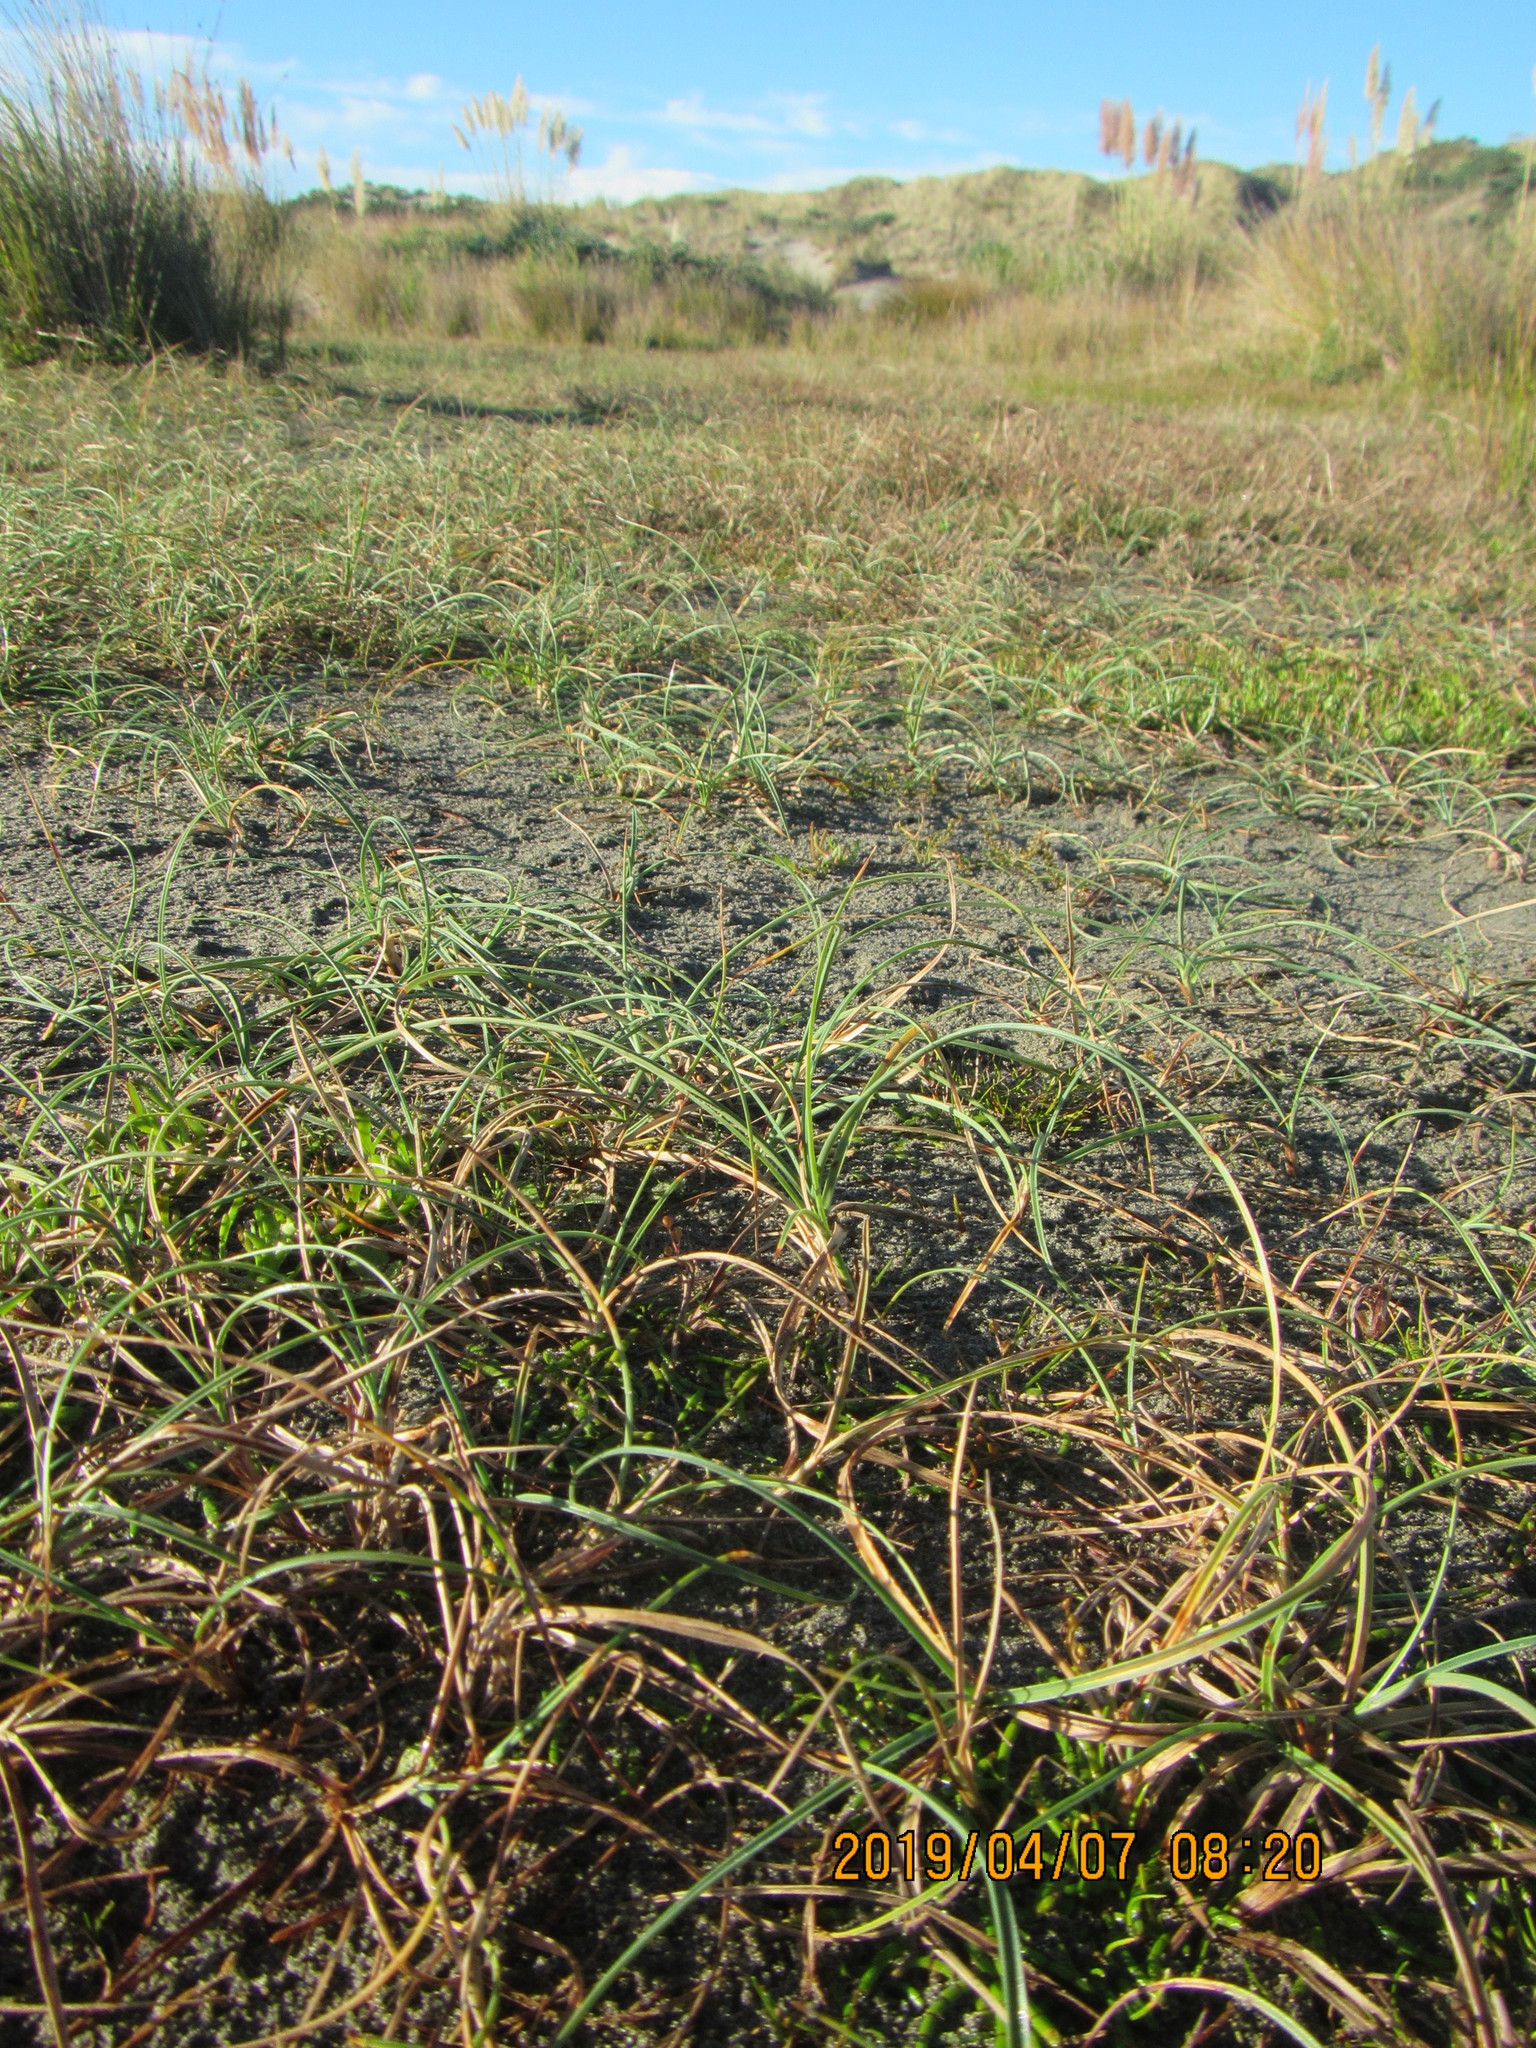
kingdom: Plantae
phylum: Tracheophyta
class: Liliopsida
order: Poales
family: Cyperaceae
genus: Carex
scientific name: Carex pumila
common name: Dwarf sedge
